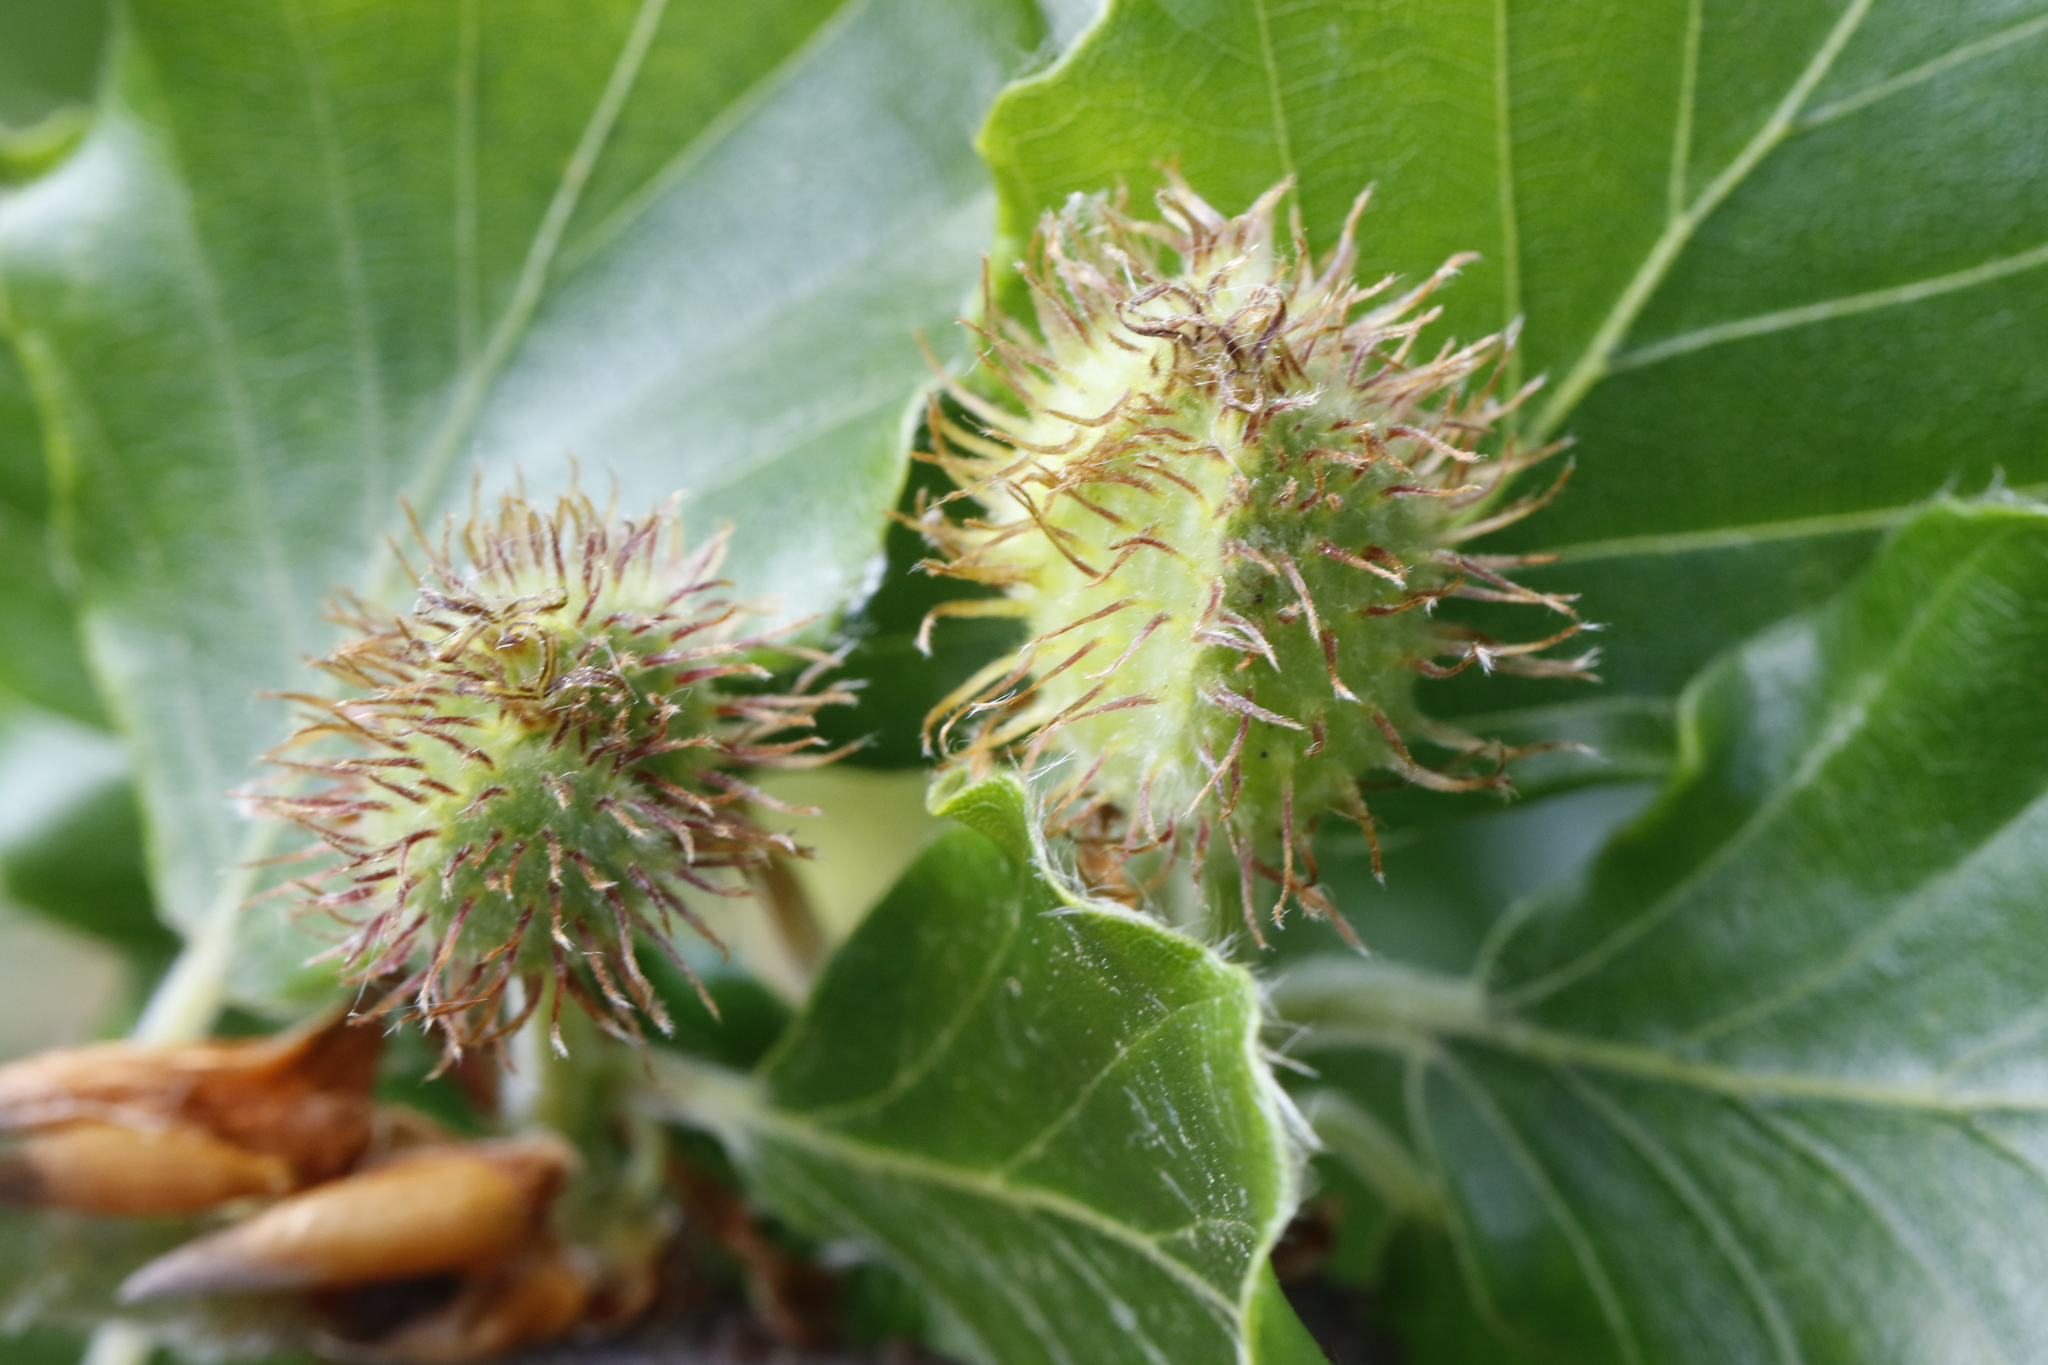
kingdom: Plantae
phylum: Tracheophyta
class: Magnoliopsida
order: Fagales
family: Fagaceae
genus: Fagus
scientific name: Fagus sylvatica
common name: Beech
